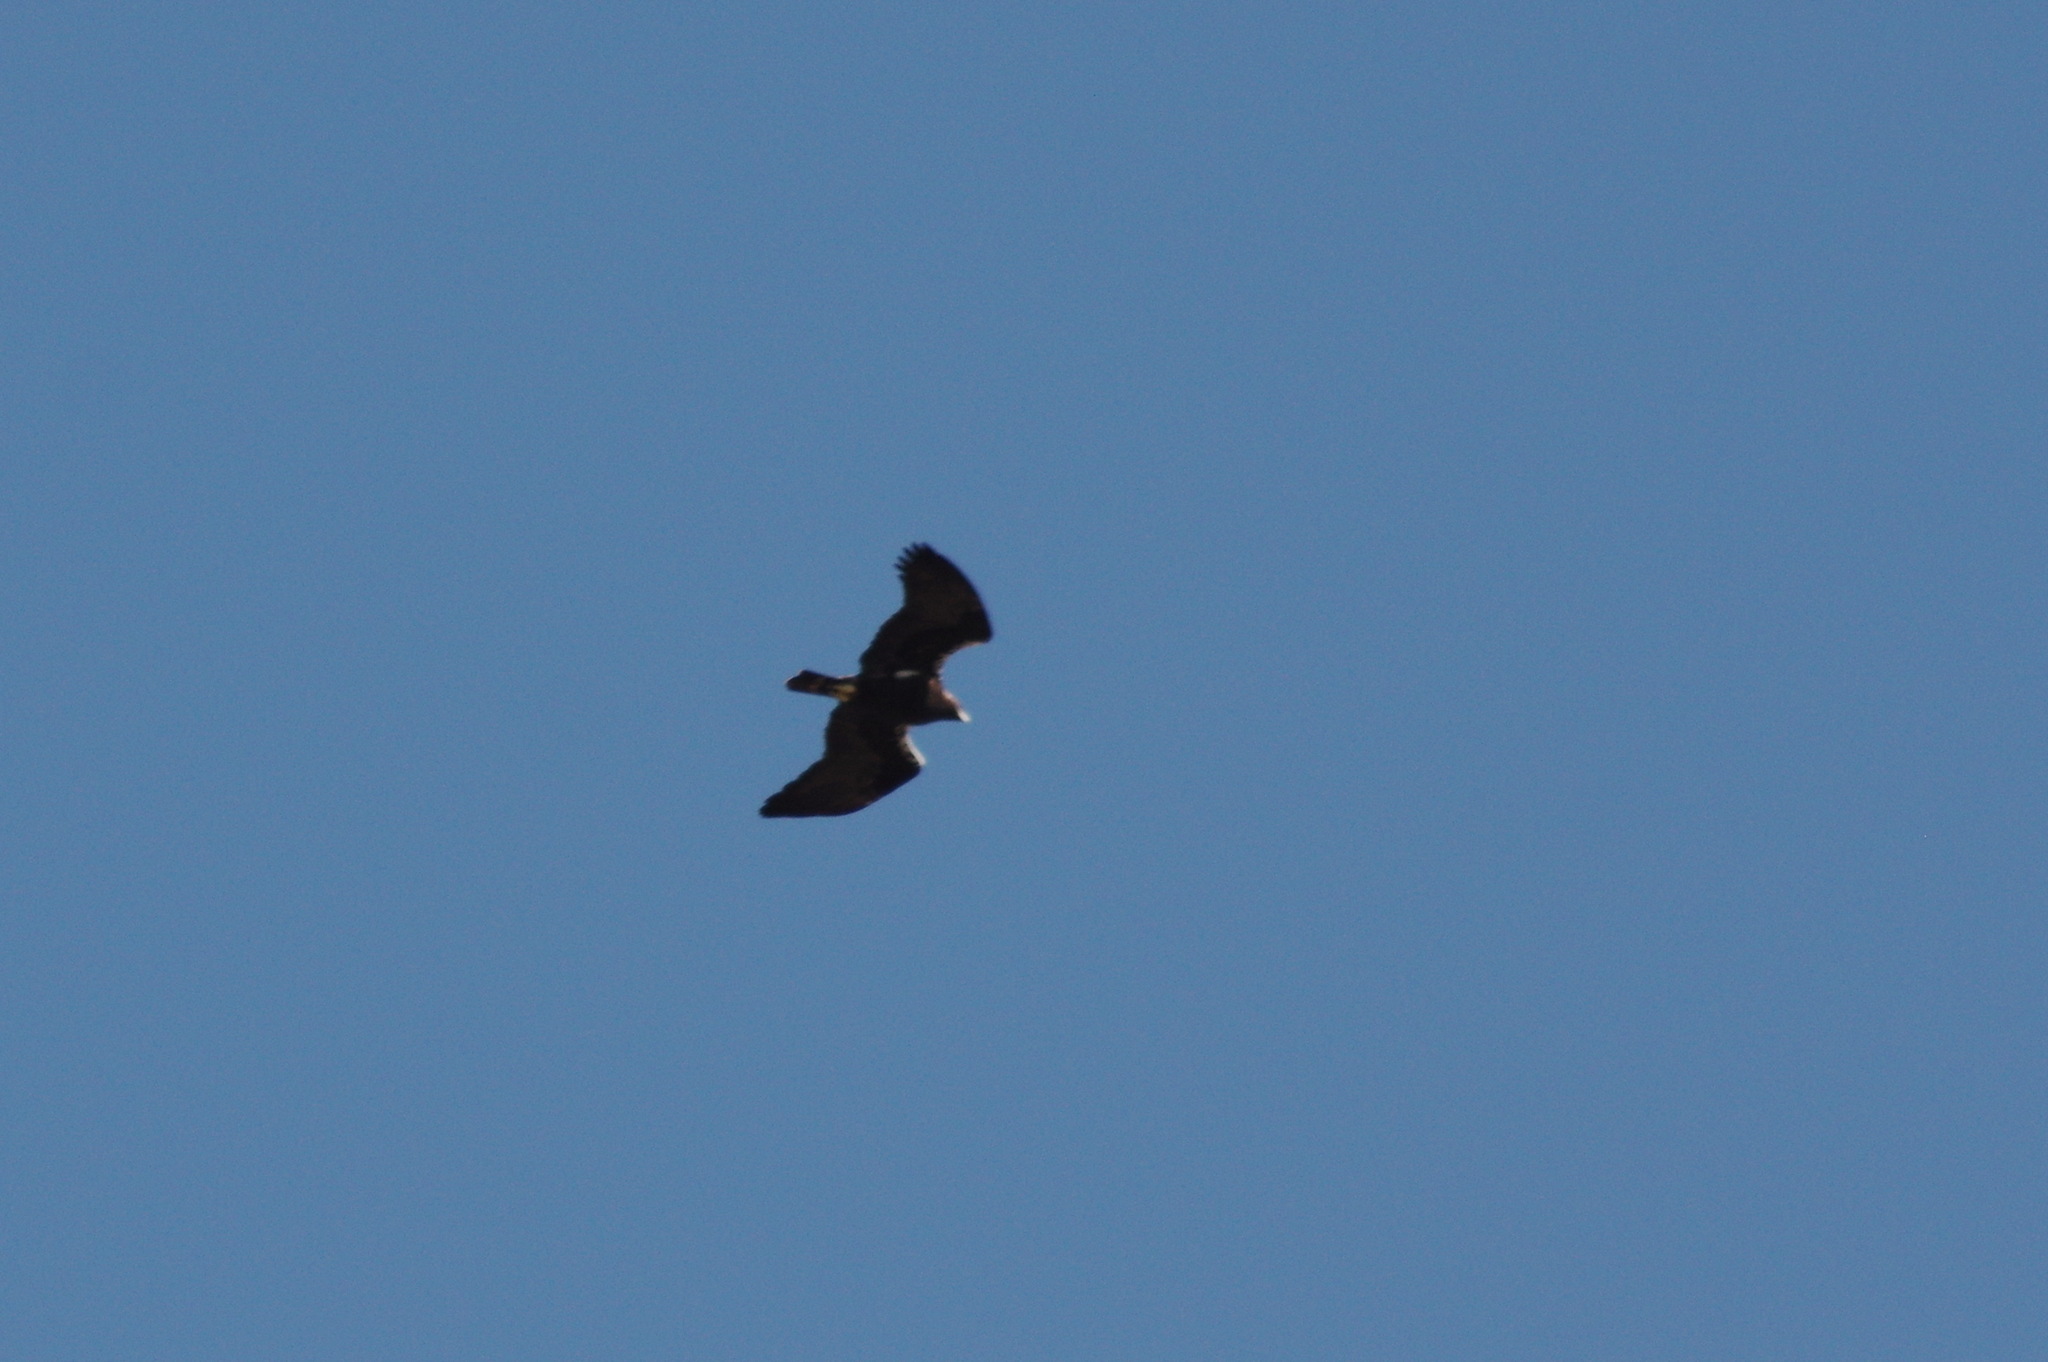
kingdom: Animalia
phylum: Chordata
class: Aves
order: Accipitriformes
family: Accipitridae
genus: Aquila
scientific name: Aquila adalberti
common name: Spanish imperial eagle
